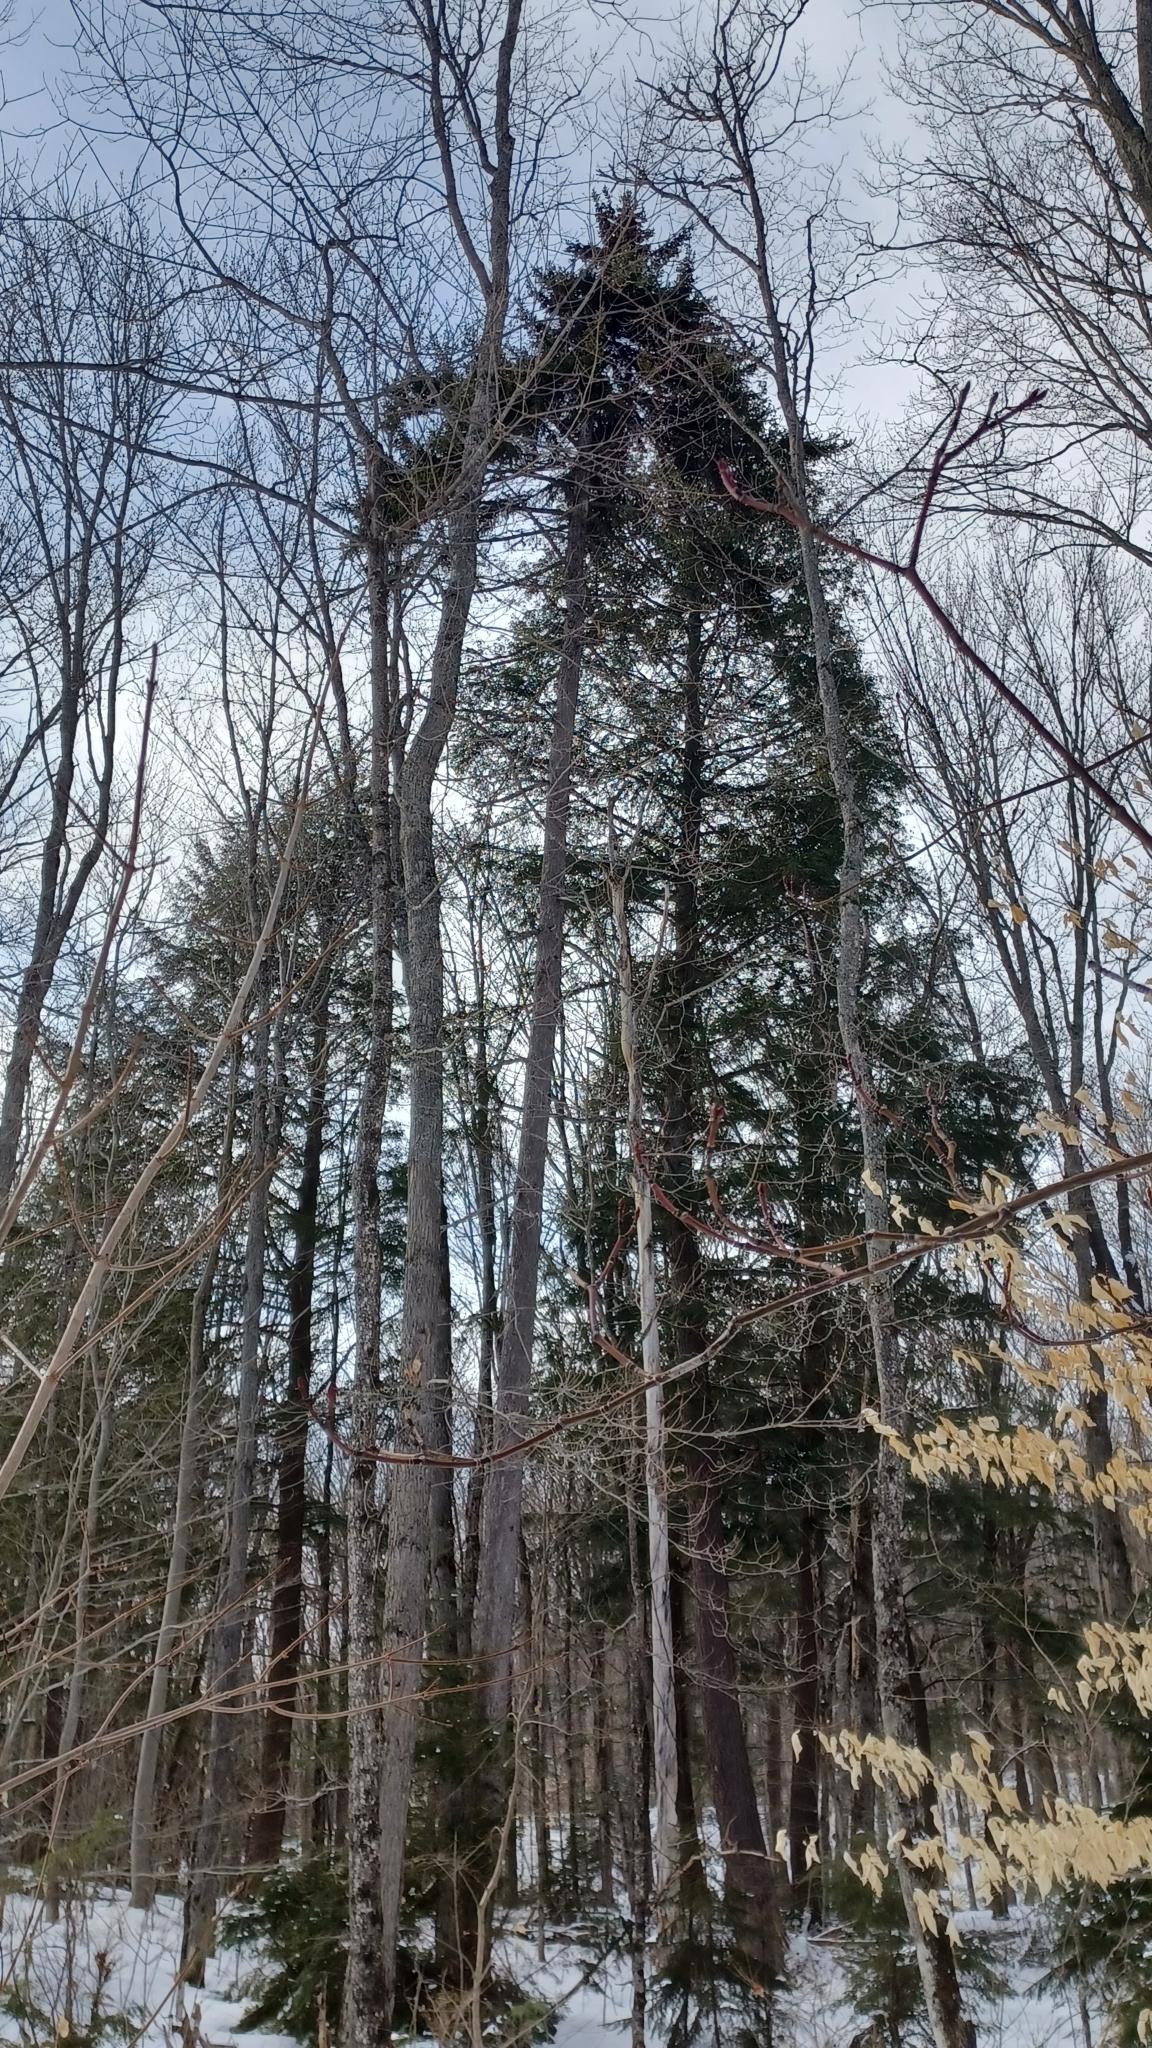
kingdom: Plantae
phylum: Tracheophyta
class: Pinopsida
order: Pinales
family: Pinaceae
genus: Picea
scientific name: Picea rubens
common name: Red spruce
